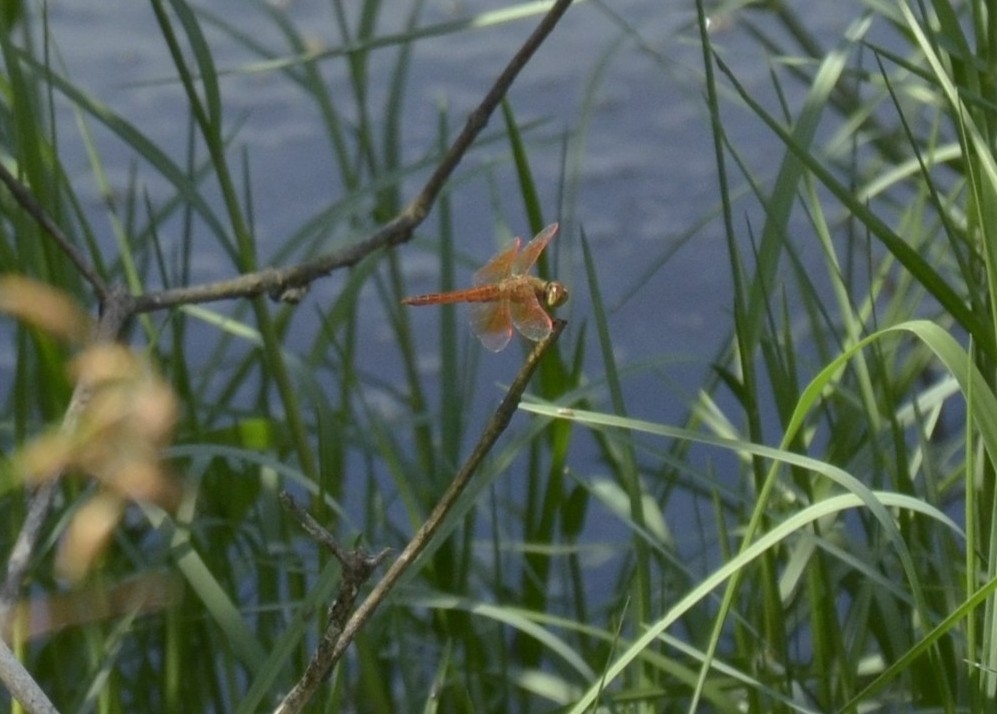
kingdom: Animalia
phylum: Arthropoda
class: Insecta
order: Odonata
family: Libellulidae
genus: Brachythemis
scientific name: Brachythemis contaminata
